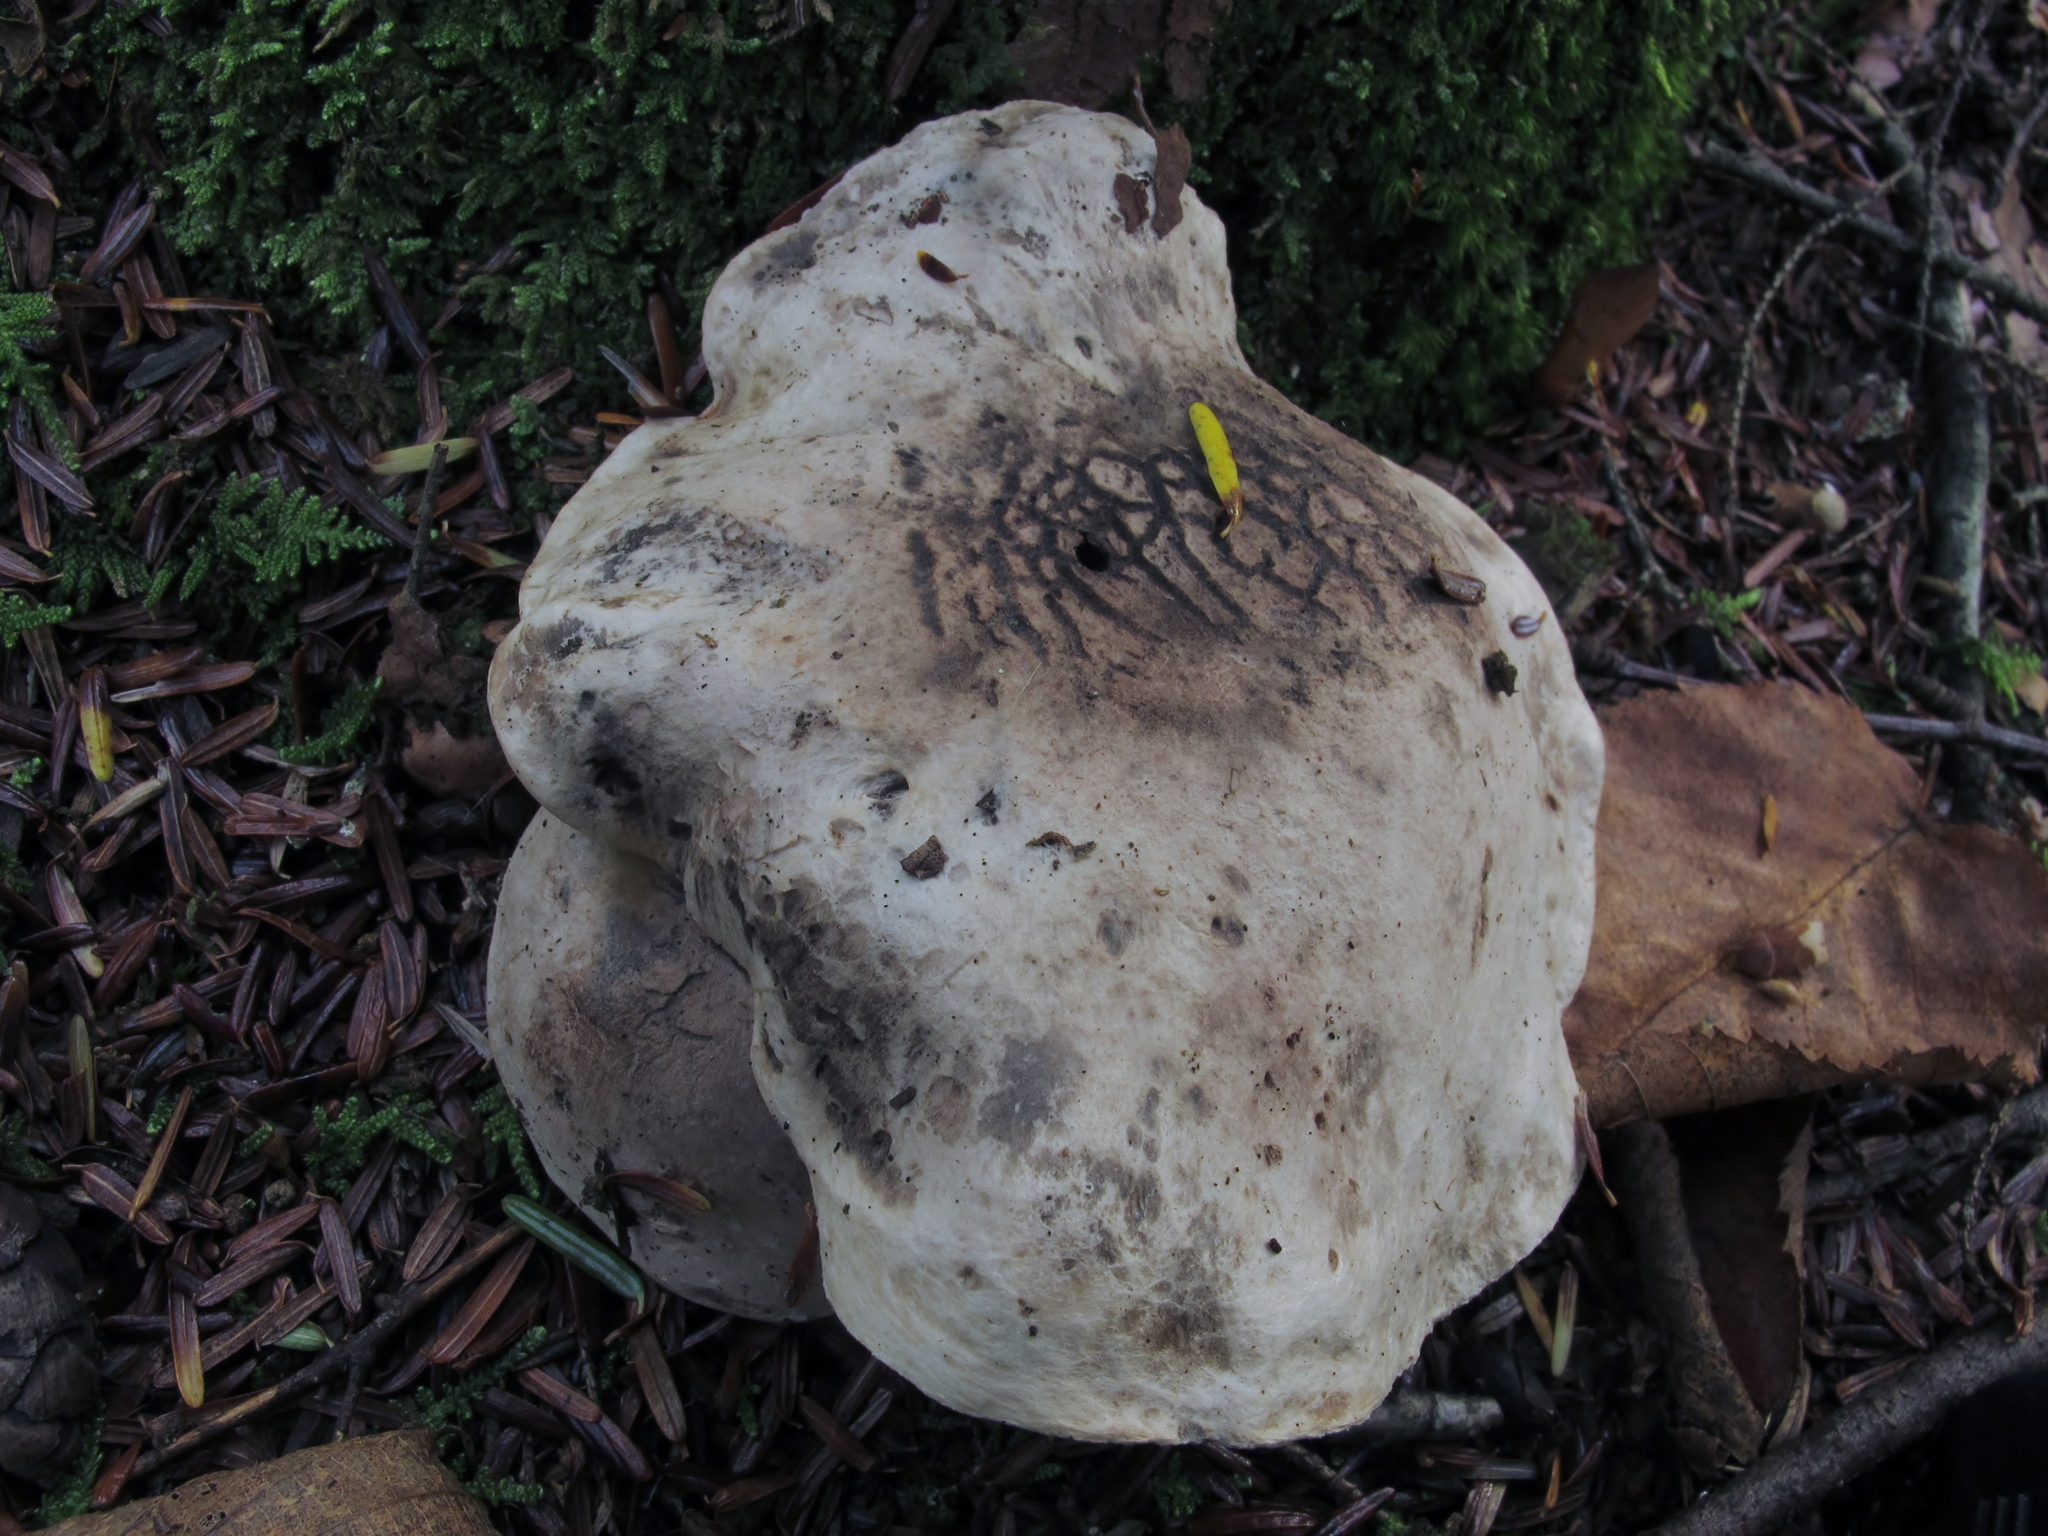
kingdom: Fungi
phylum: Basidiomycota
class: Agaricomycetes
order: Thelephorales
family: Bankeraceae
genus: Boletopsis
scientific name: Boletopsis grisea
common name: Grey falsebolete
